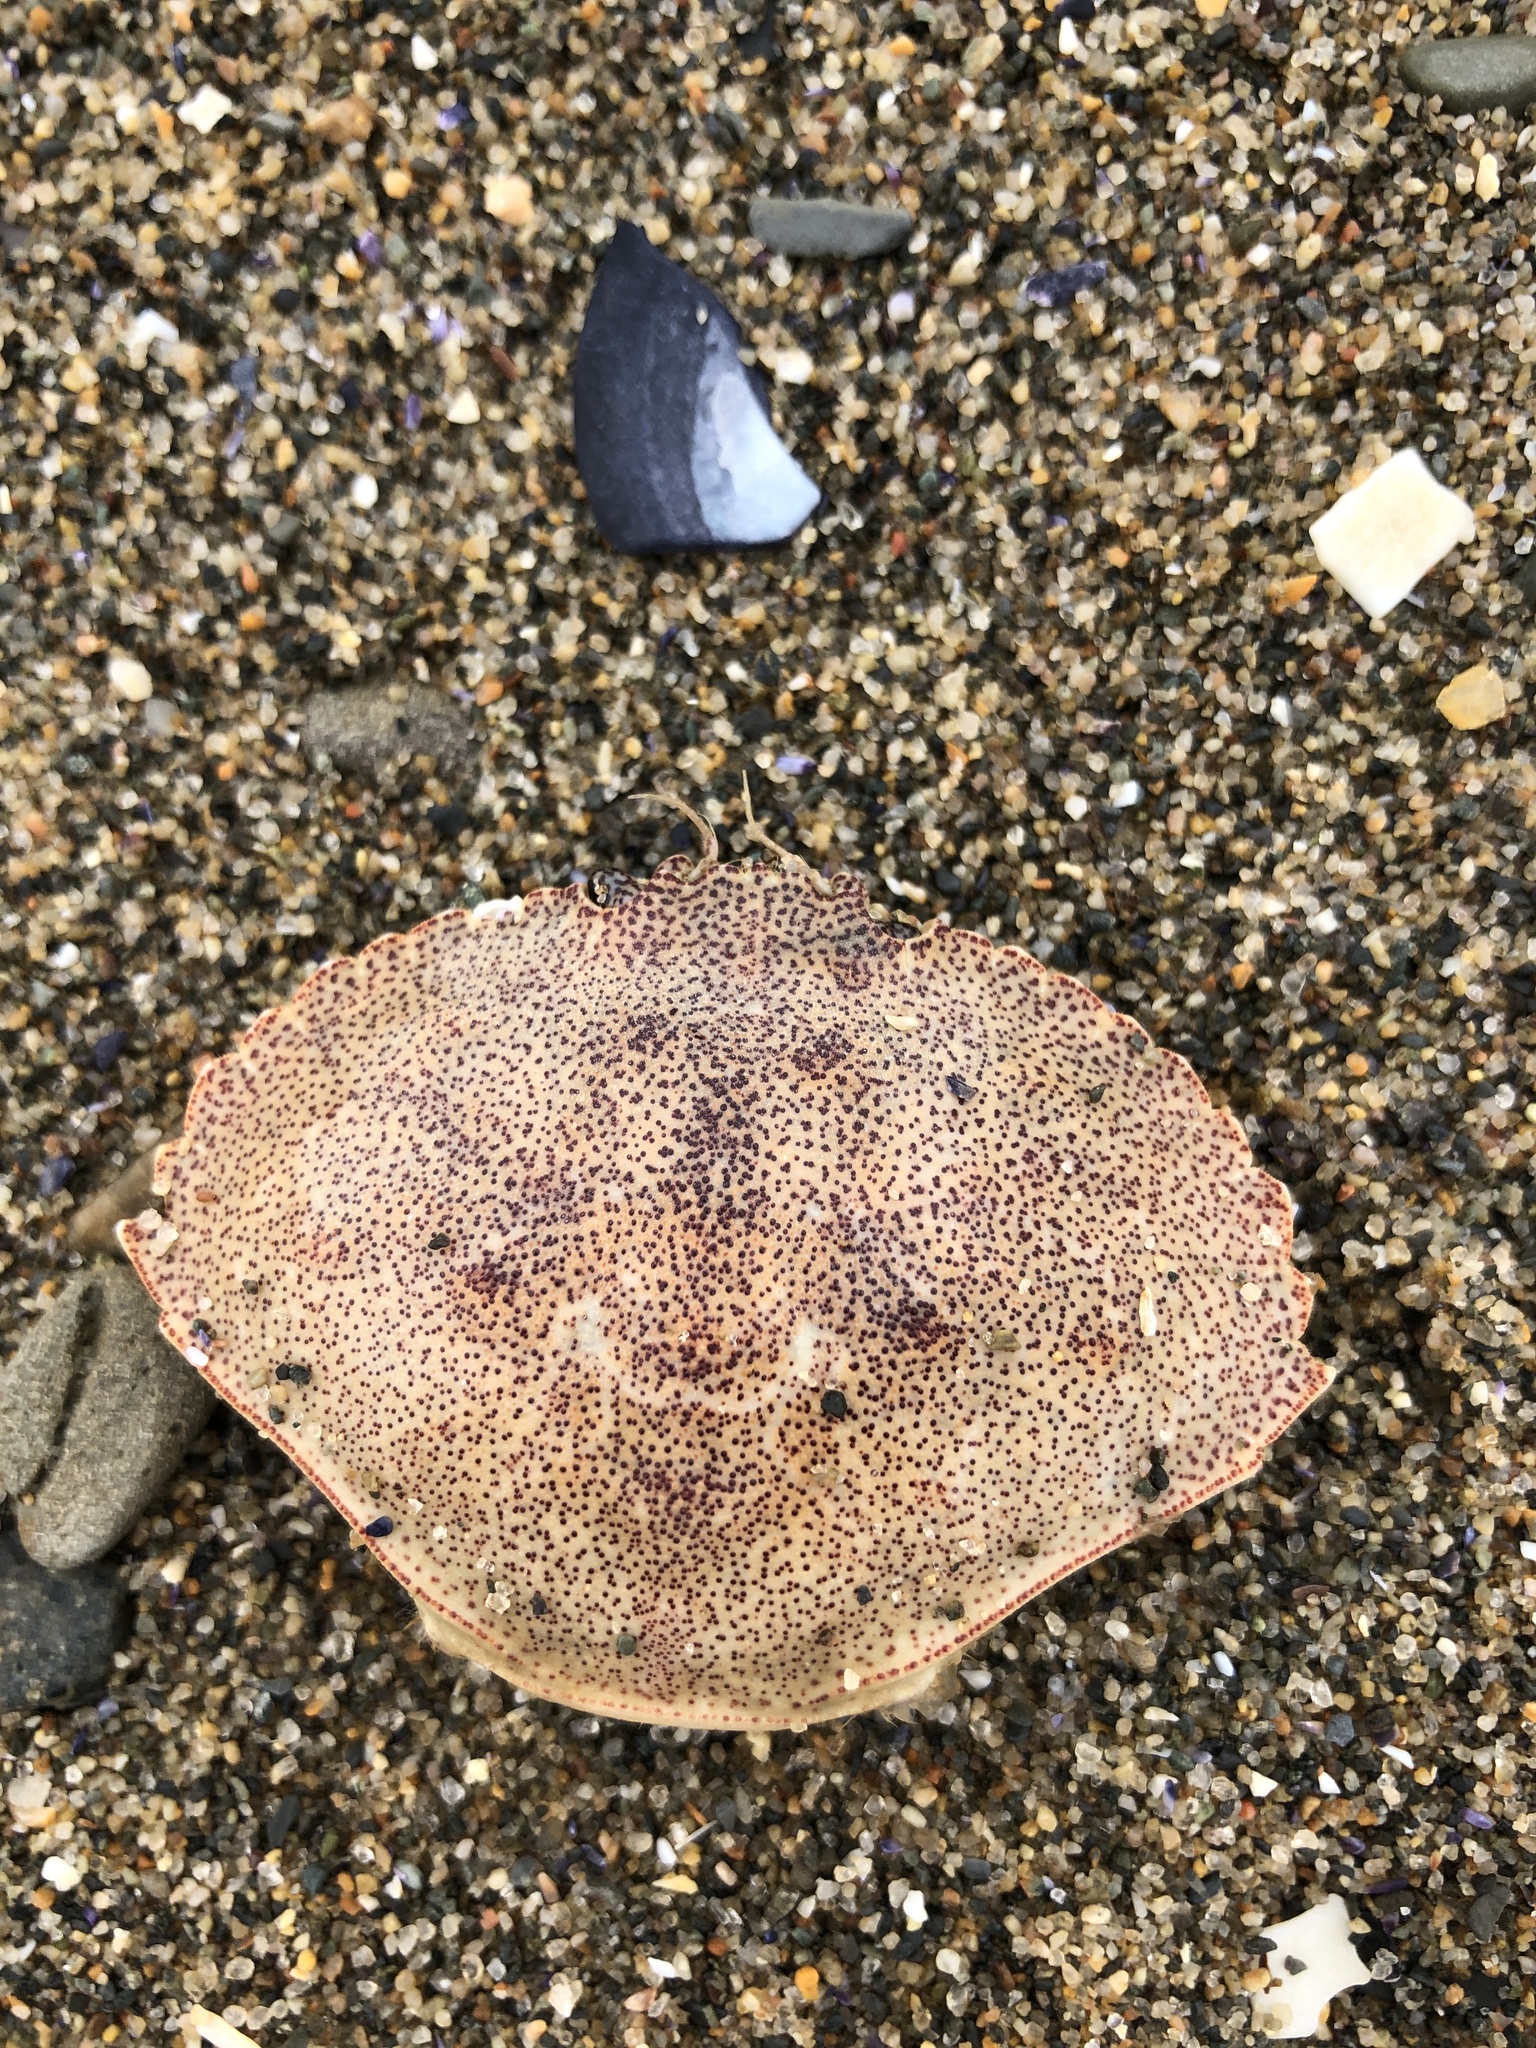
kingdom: Animalia
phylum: Arthropoda
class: Malacostraca
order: Decapoda
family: Cancridae
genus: Cancer
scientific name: Cancer irroratus
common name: Atlantic rock crab
